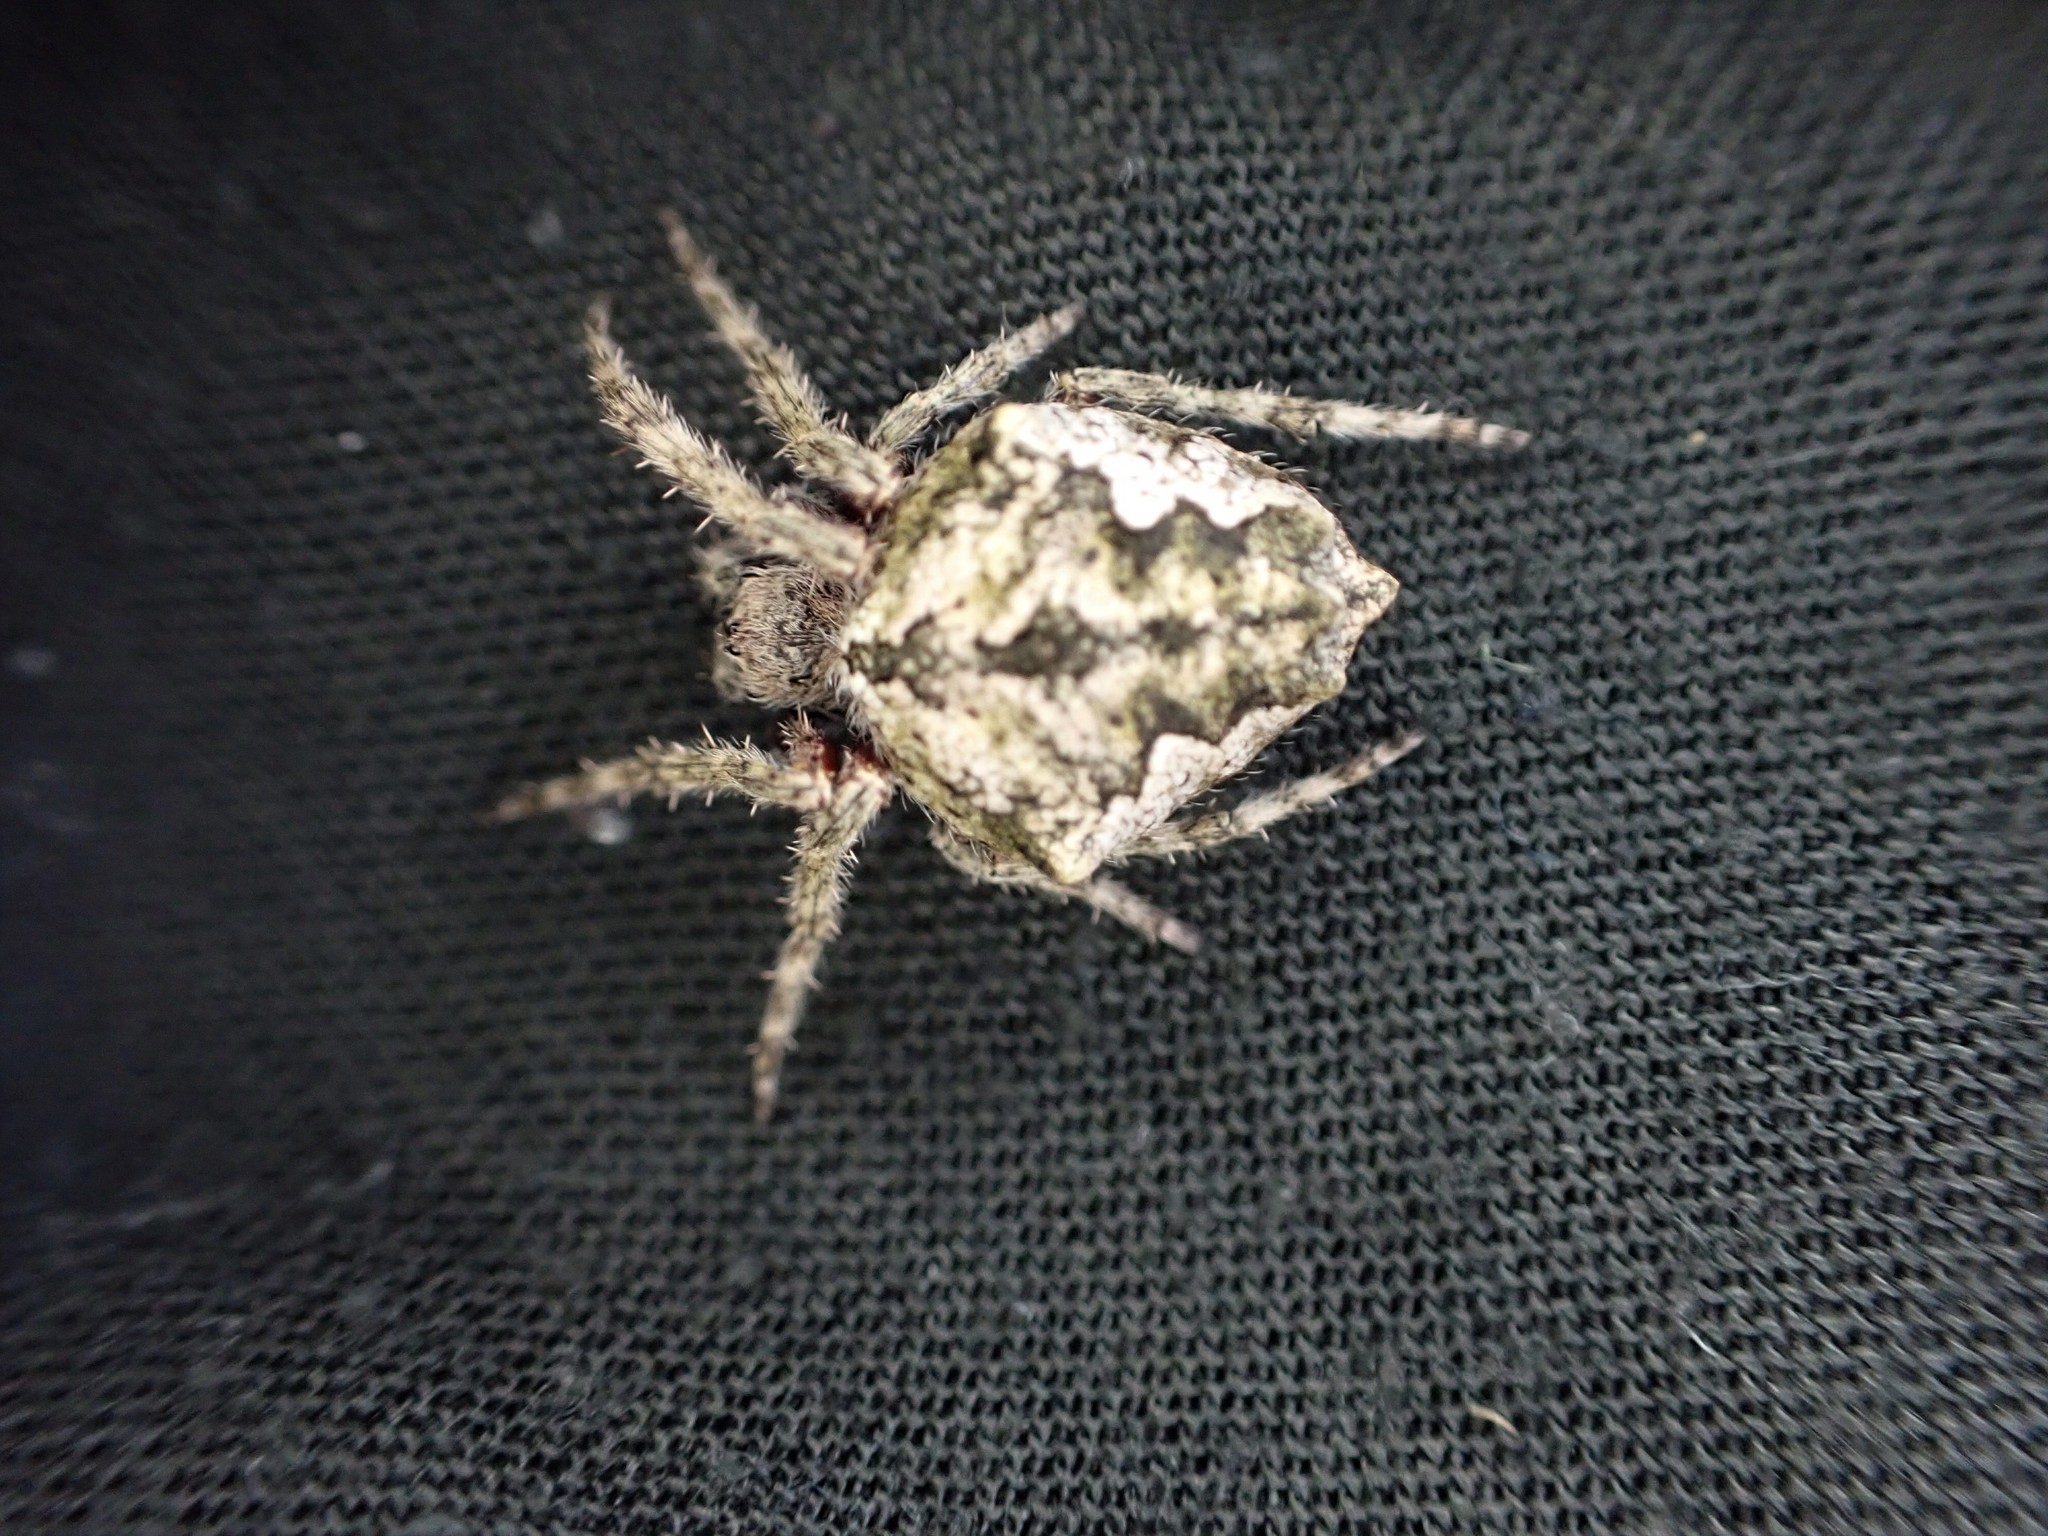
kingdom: Animalia
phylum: Arthropoda
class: Arachnida
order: Araneae
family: Araneidae
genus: Eriophora
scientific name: Eriophora pustulosa
